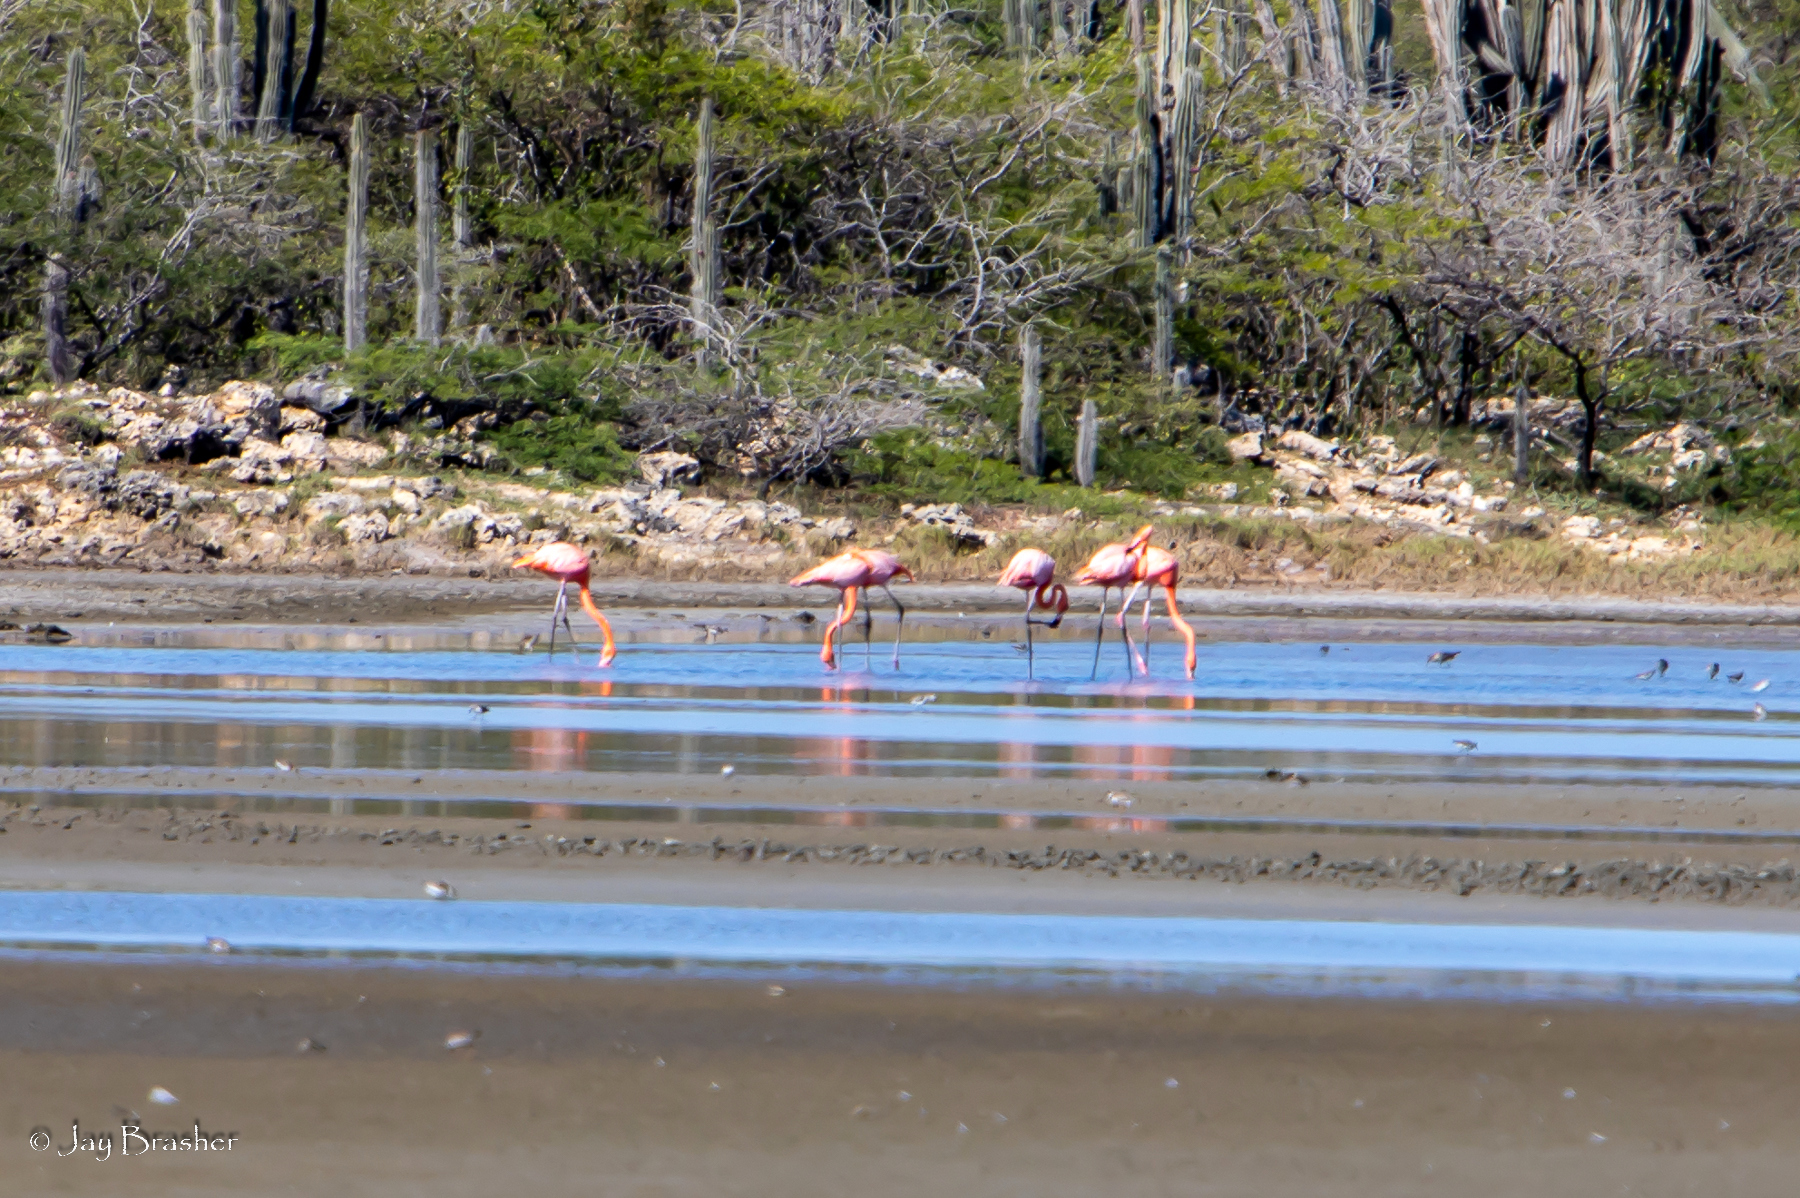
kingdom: Animalia
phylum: Chordata
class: Aves
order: Phoenicopteriformes
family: Phoenicopteridae
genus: Phoenicopterus
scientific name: Phoenicopterus ruber
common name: American flamingo
